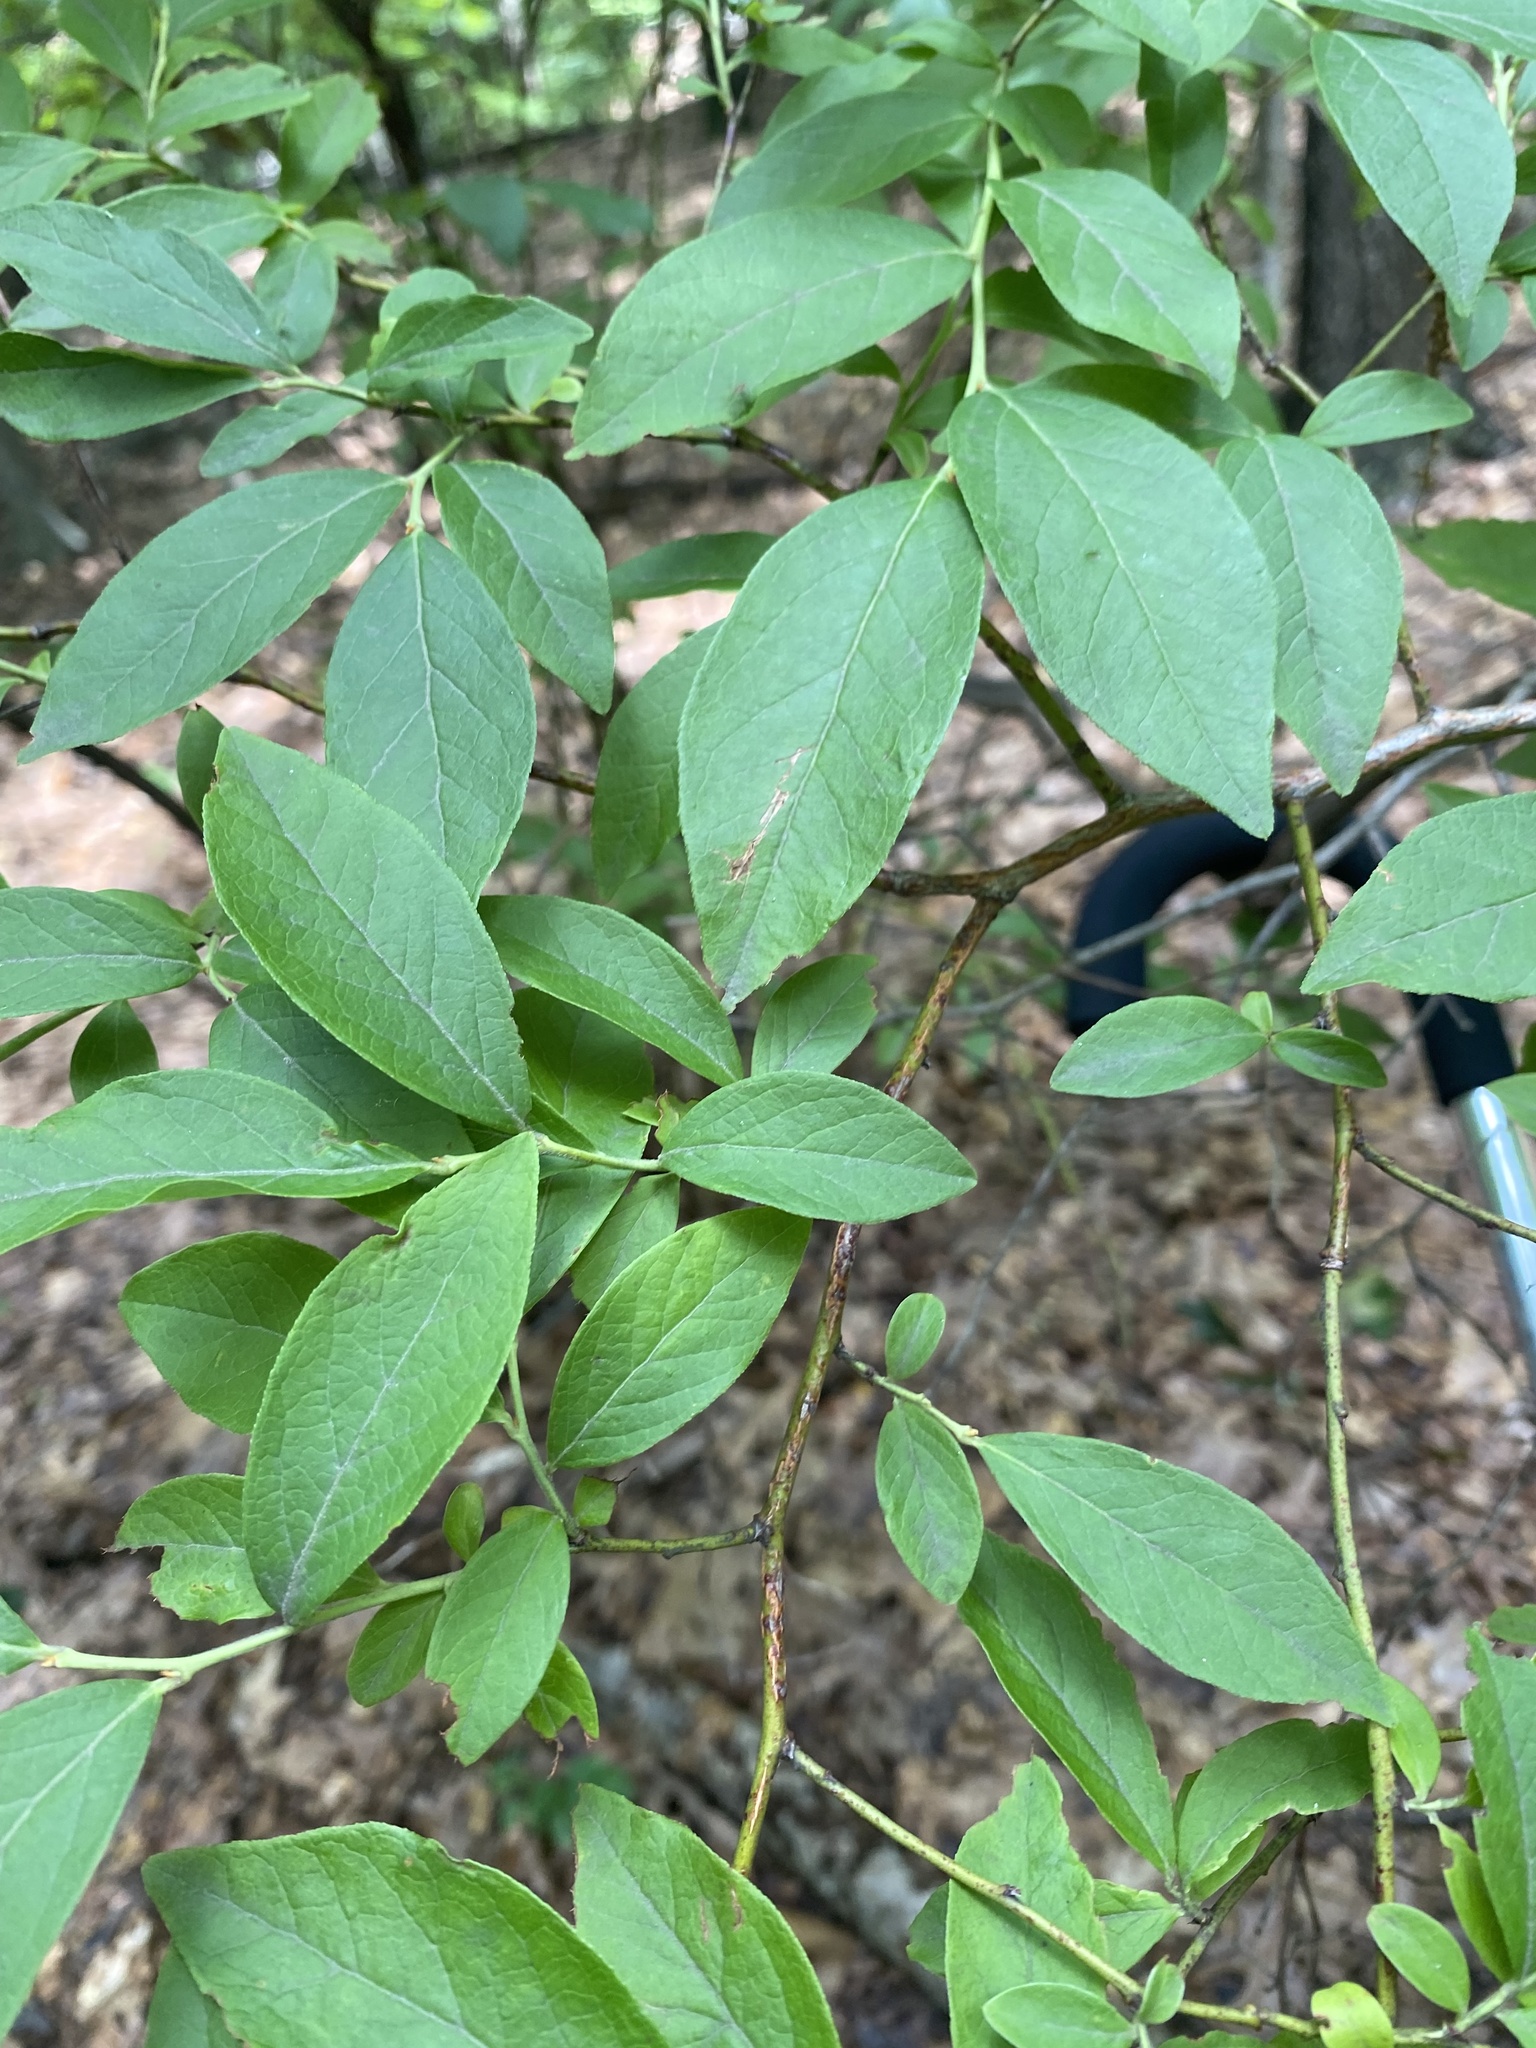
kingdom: Plantae
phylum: Tracheophyta
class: Magnoliopsida
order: Ericales
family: Ericaceae
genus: Vaccinium
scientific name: Vaccinium corymbosum
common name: Blueberry
